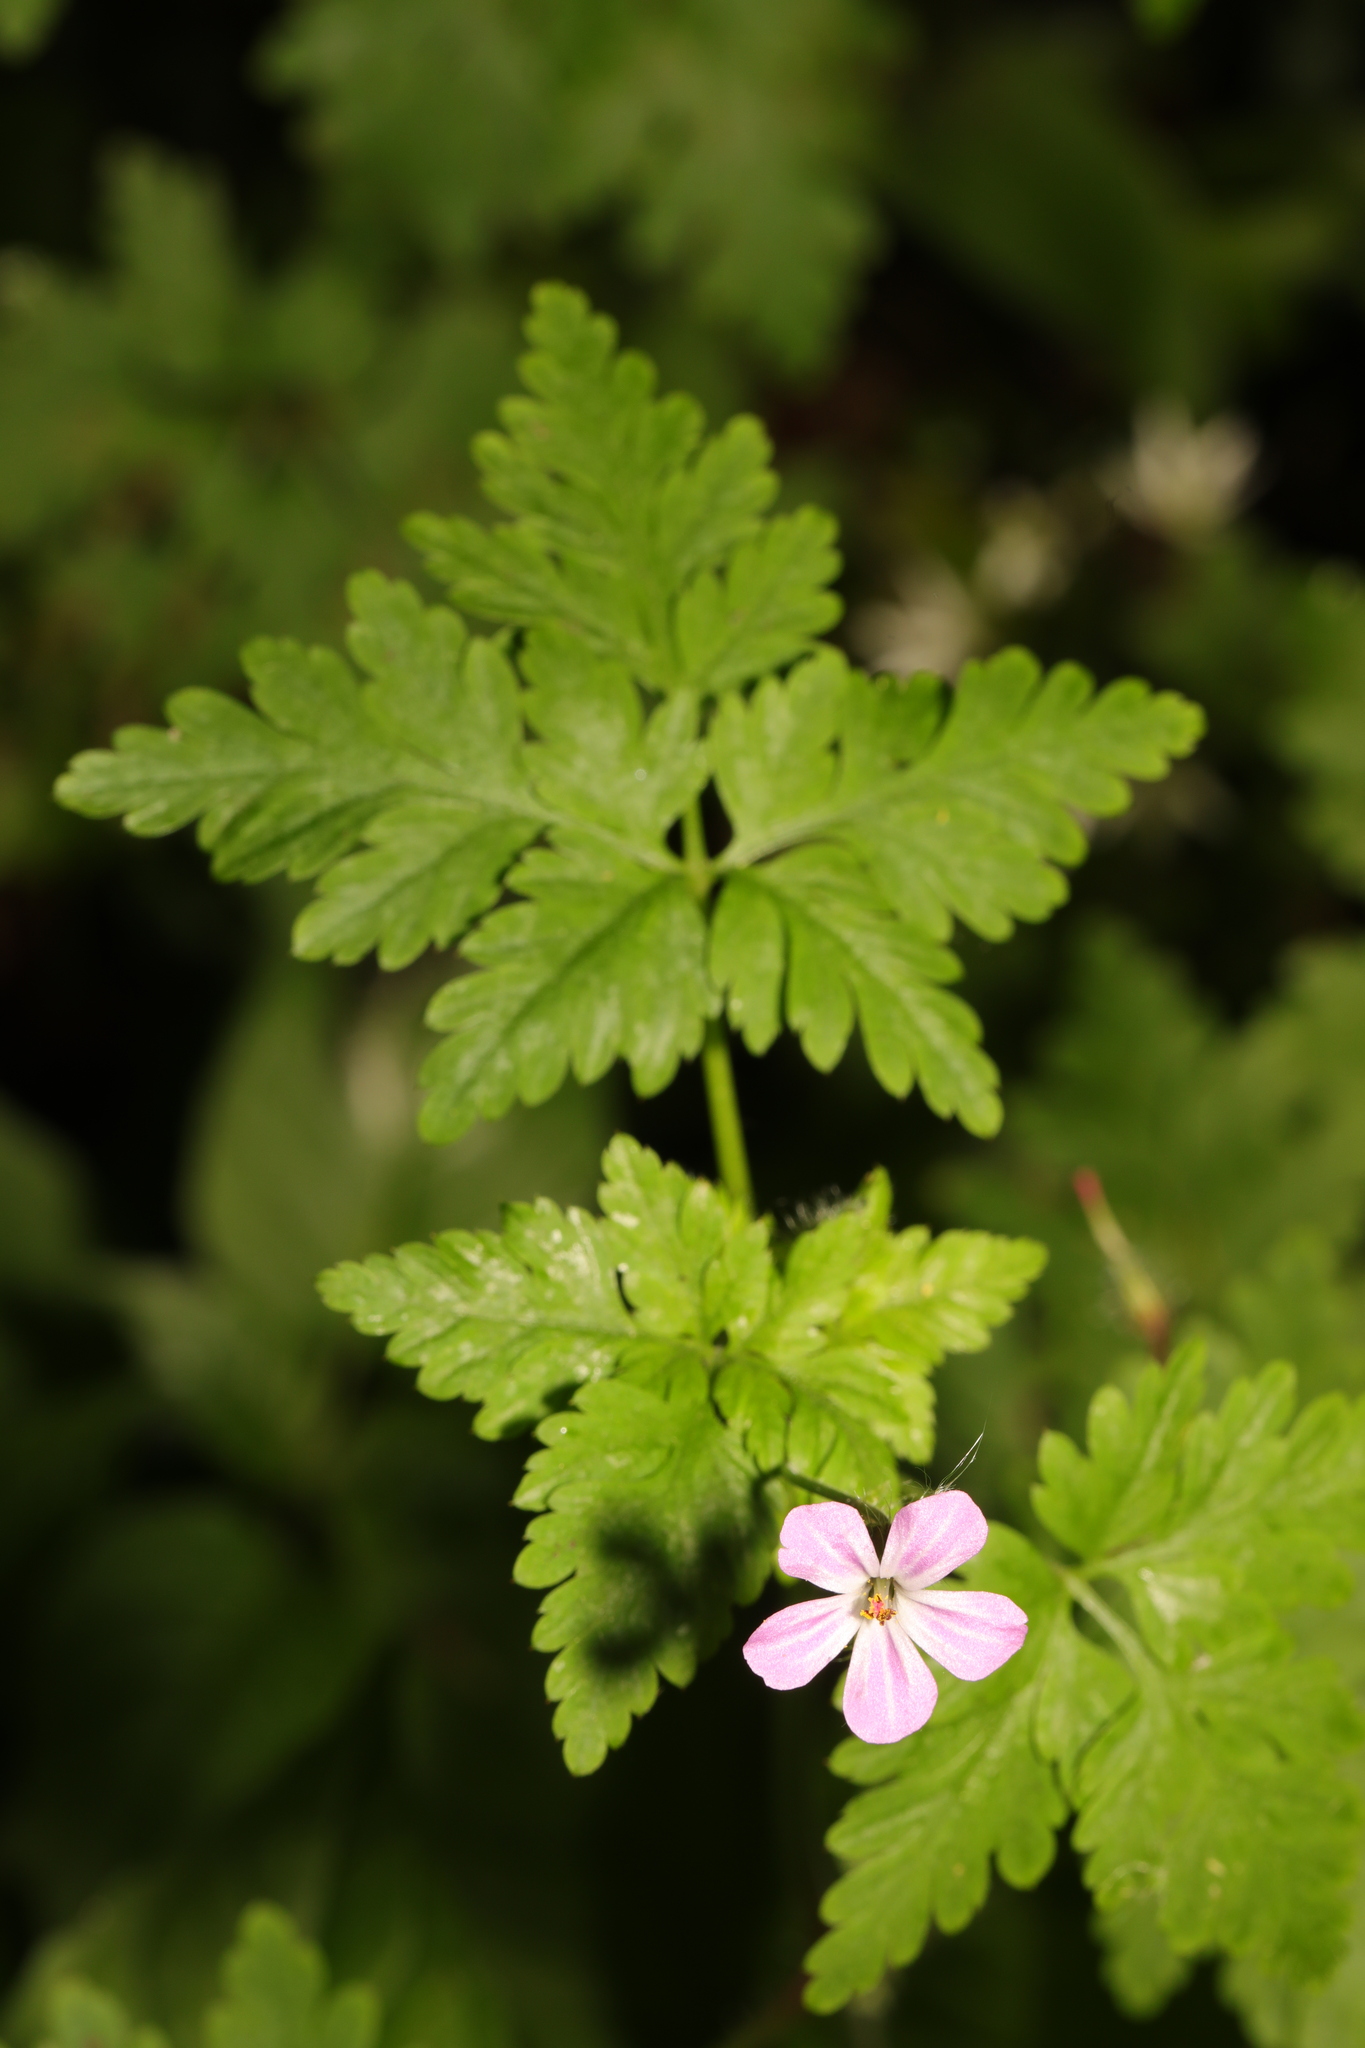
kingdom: Plantae
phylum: Tracheophyta
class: Magnoliopsida
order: Geraniales
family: Geraniaceae
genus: Geranium
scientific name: Geranium robertianum
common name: Herb-robert
